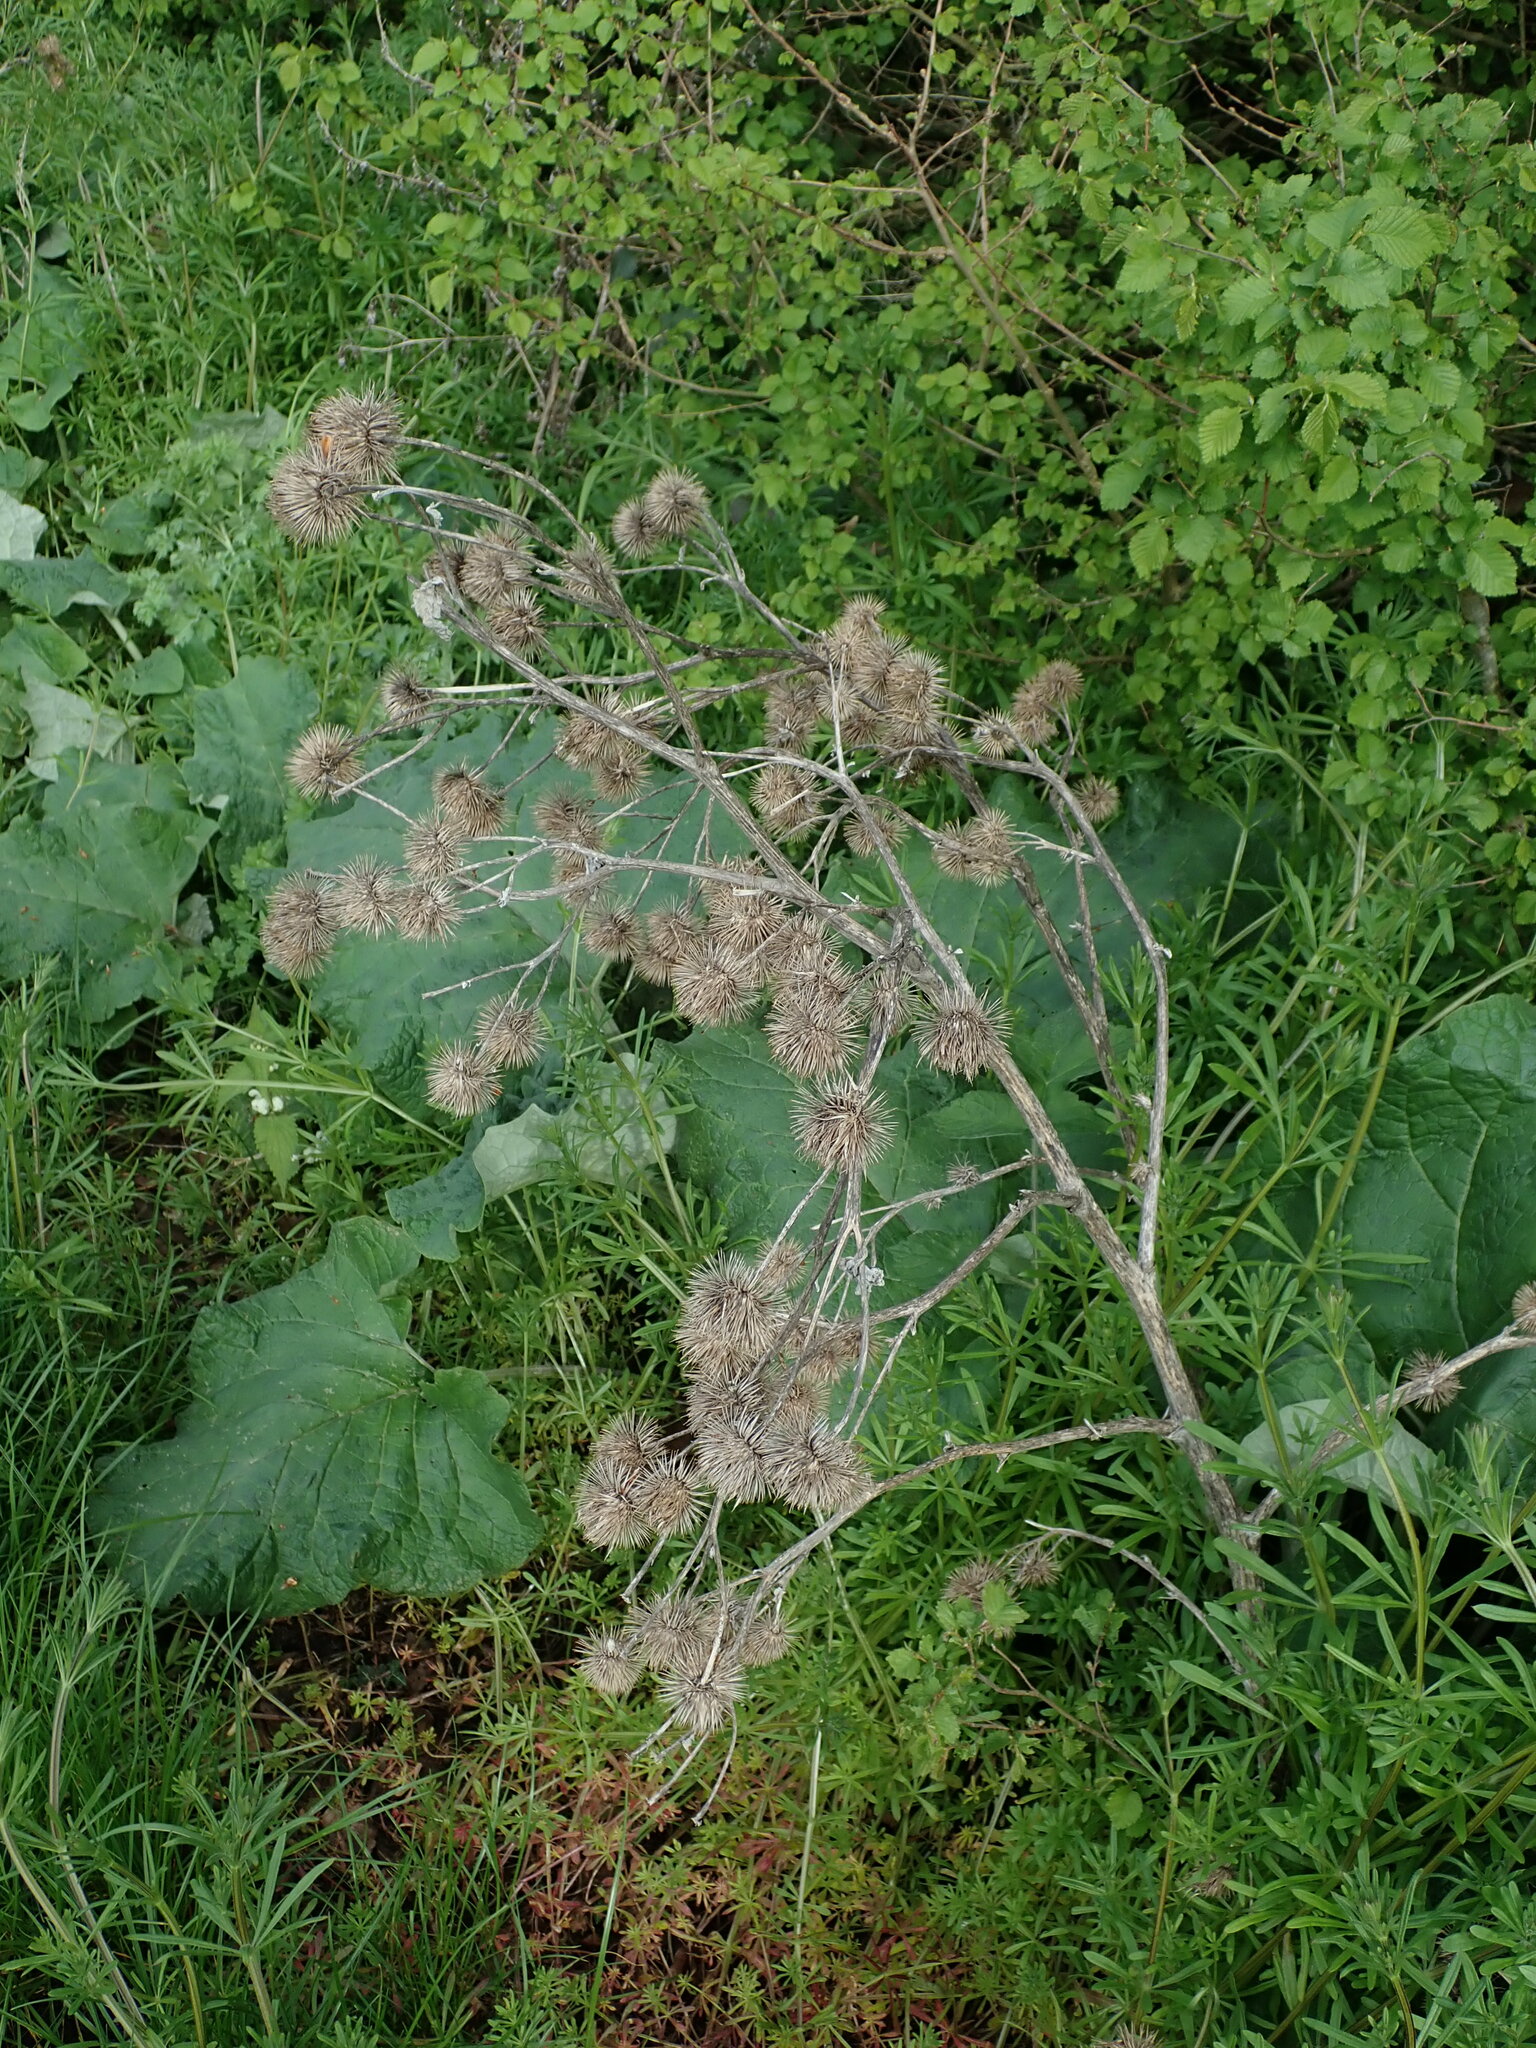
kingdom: Plantae
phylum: Tracheophyta
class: Magnoliopsida
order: Asterales
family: Asteraceae
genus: Arctium
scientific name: Arctium lappa
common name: Greater burdock
